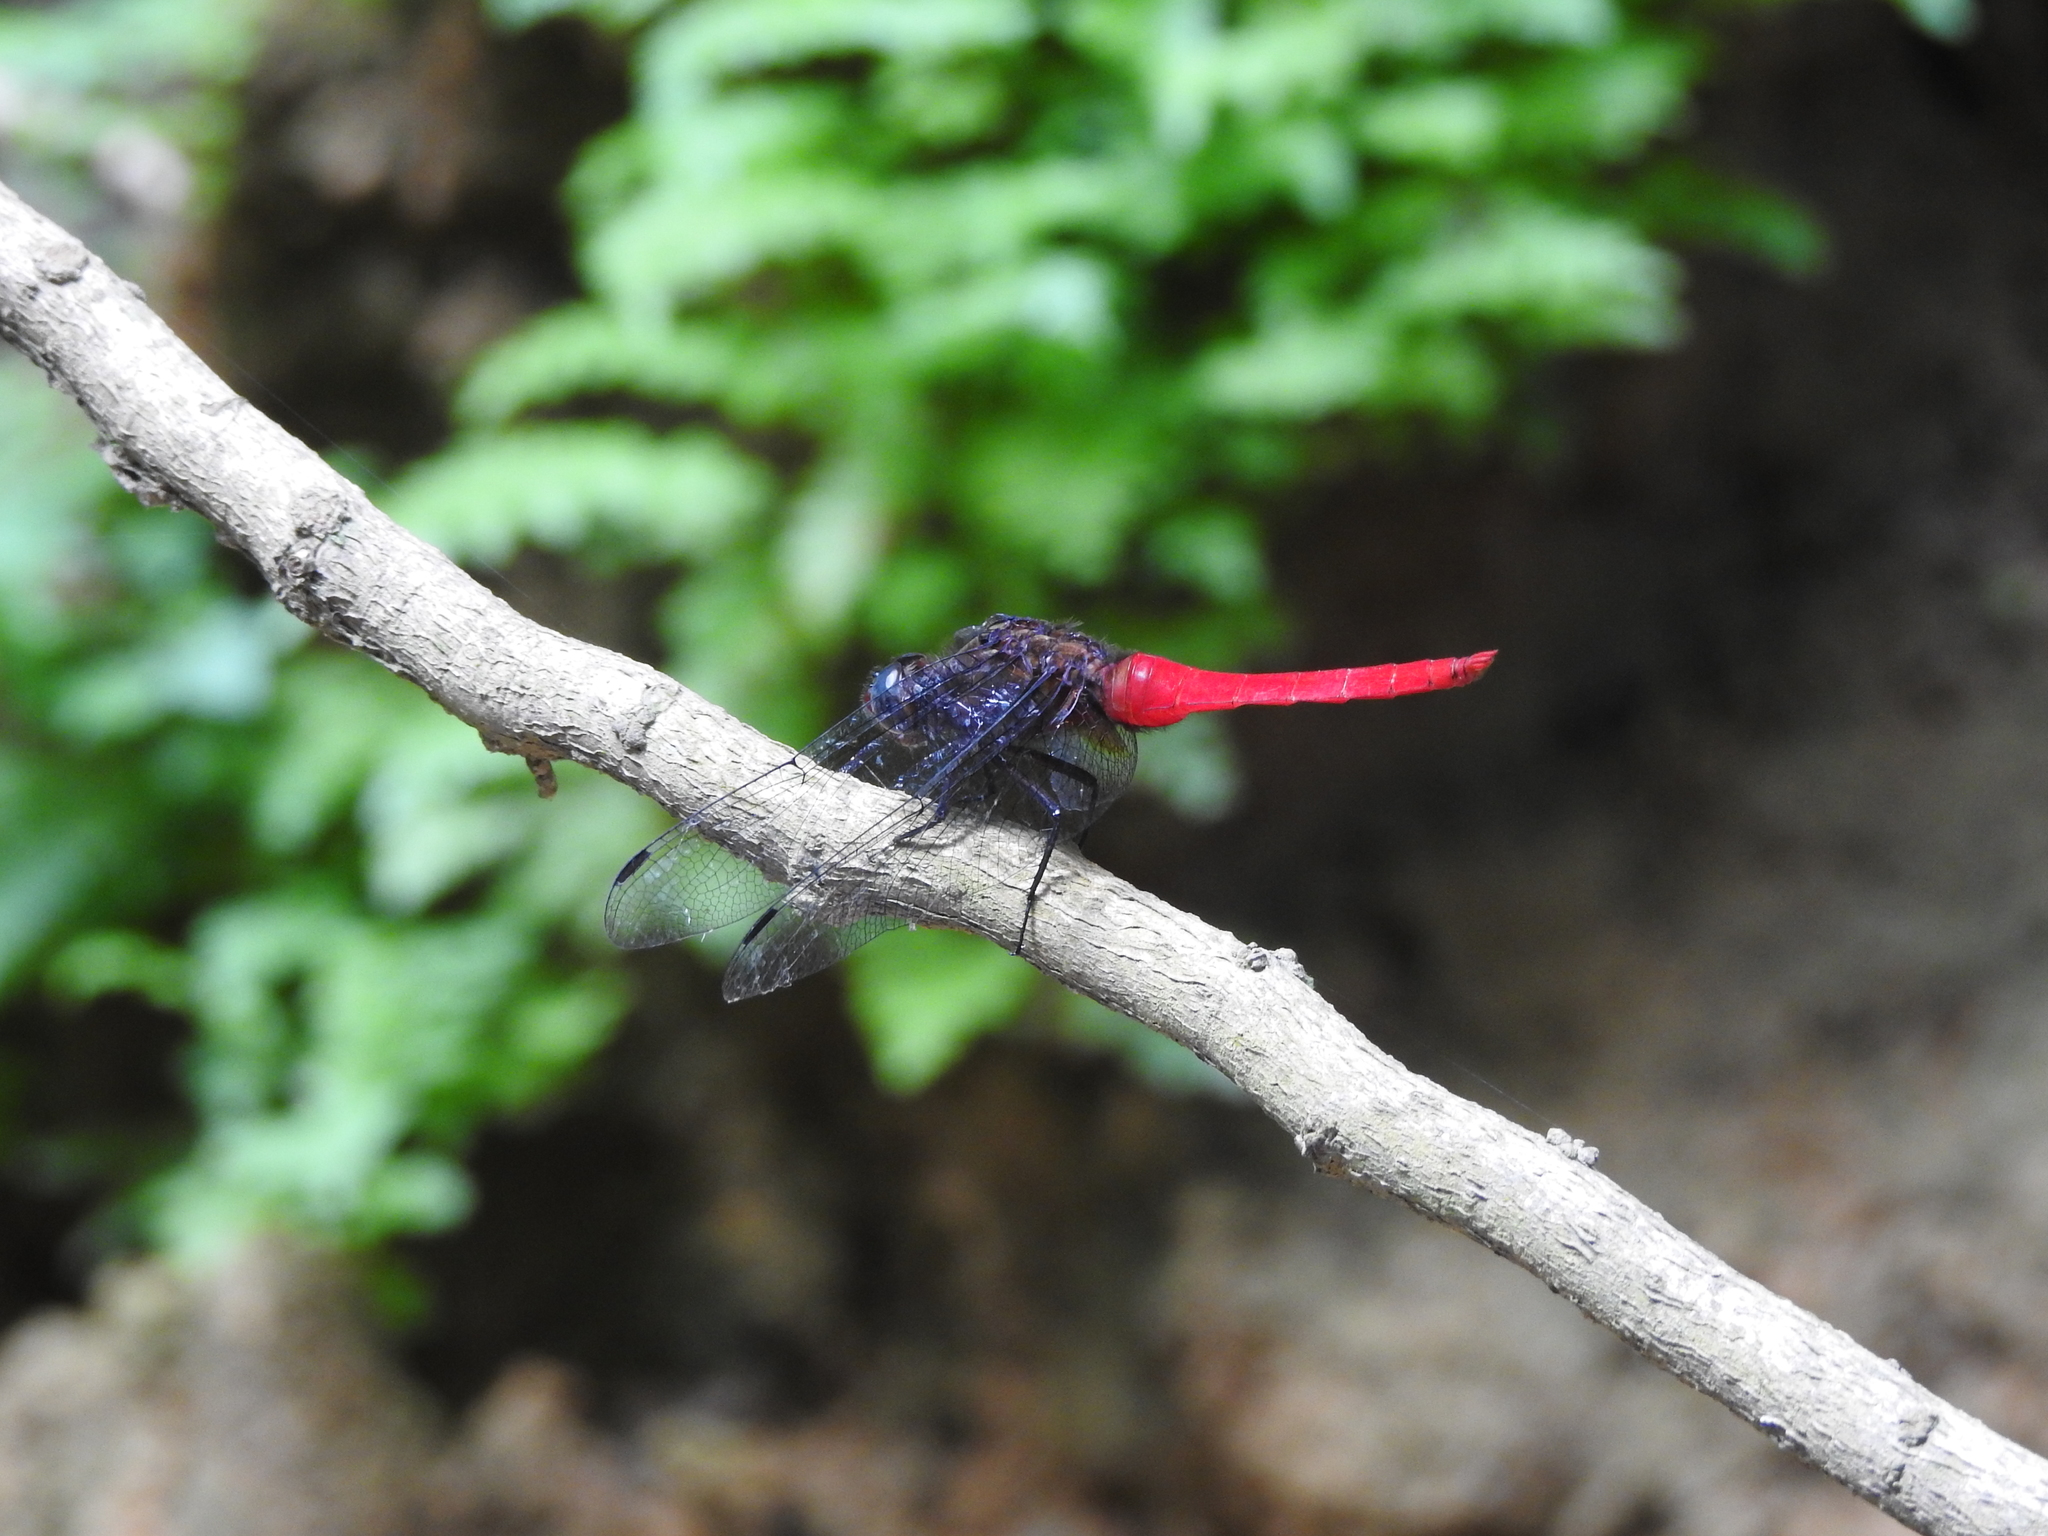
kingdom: Animalia
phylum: Arthropoda
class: Insecta
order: Odonata
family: Libellulidae
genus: Orthetrum
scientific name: Orthetrum chrysis
